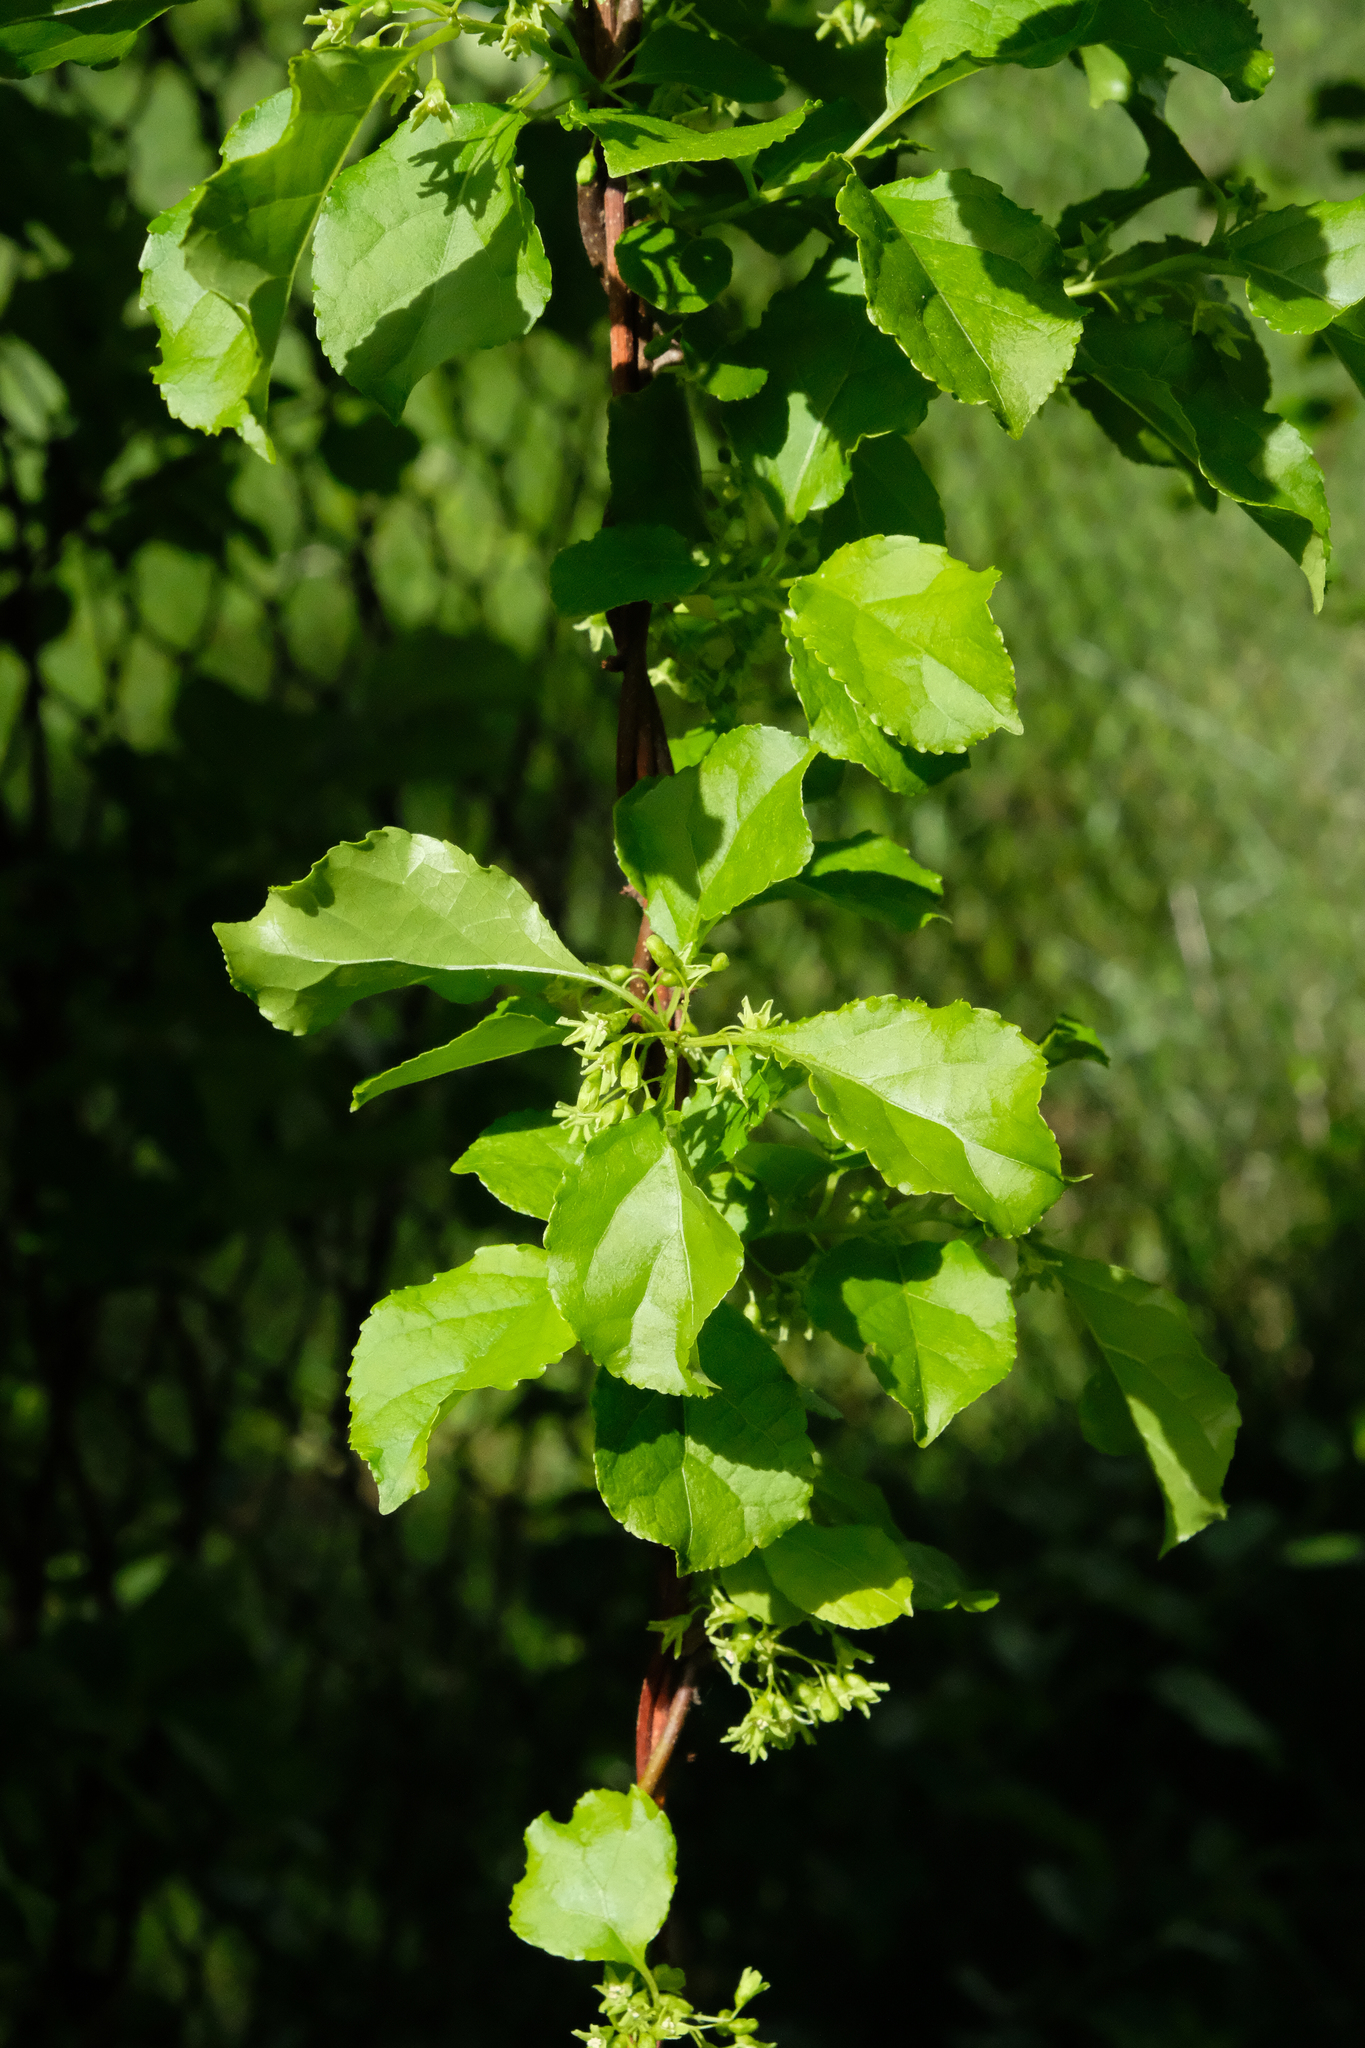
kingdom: Plantae
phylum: Tracheophyta
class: Magnoliopsida
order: Celastrales
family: Celastraceae
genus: Celastrus
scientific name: Celastrus orbiculatus
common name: Oriental bittersweet
